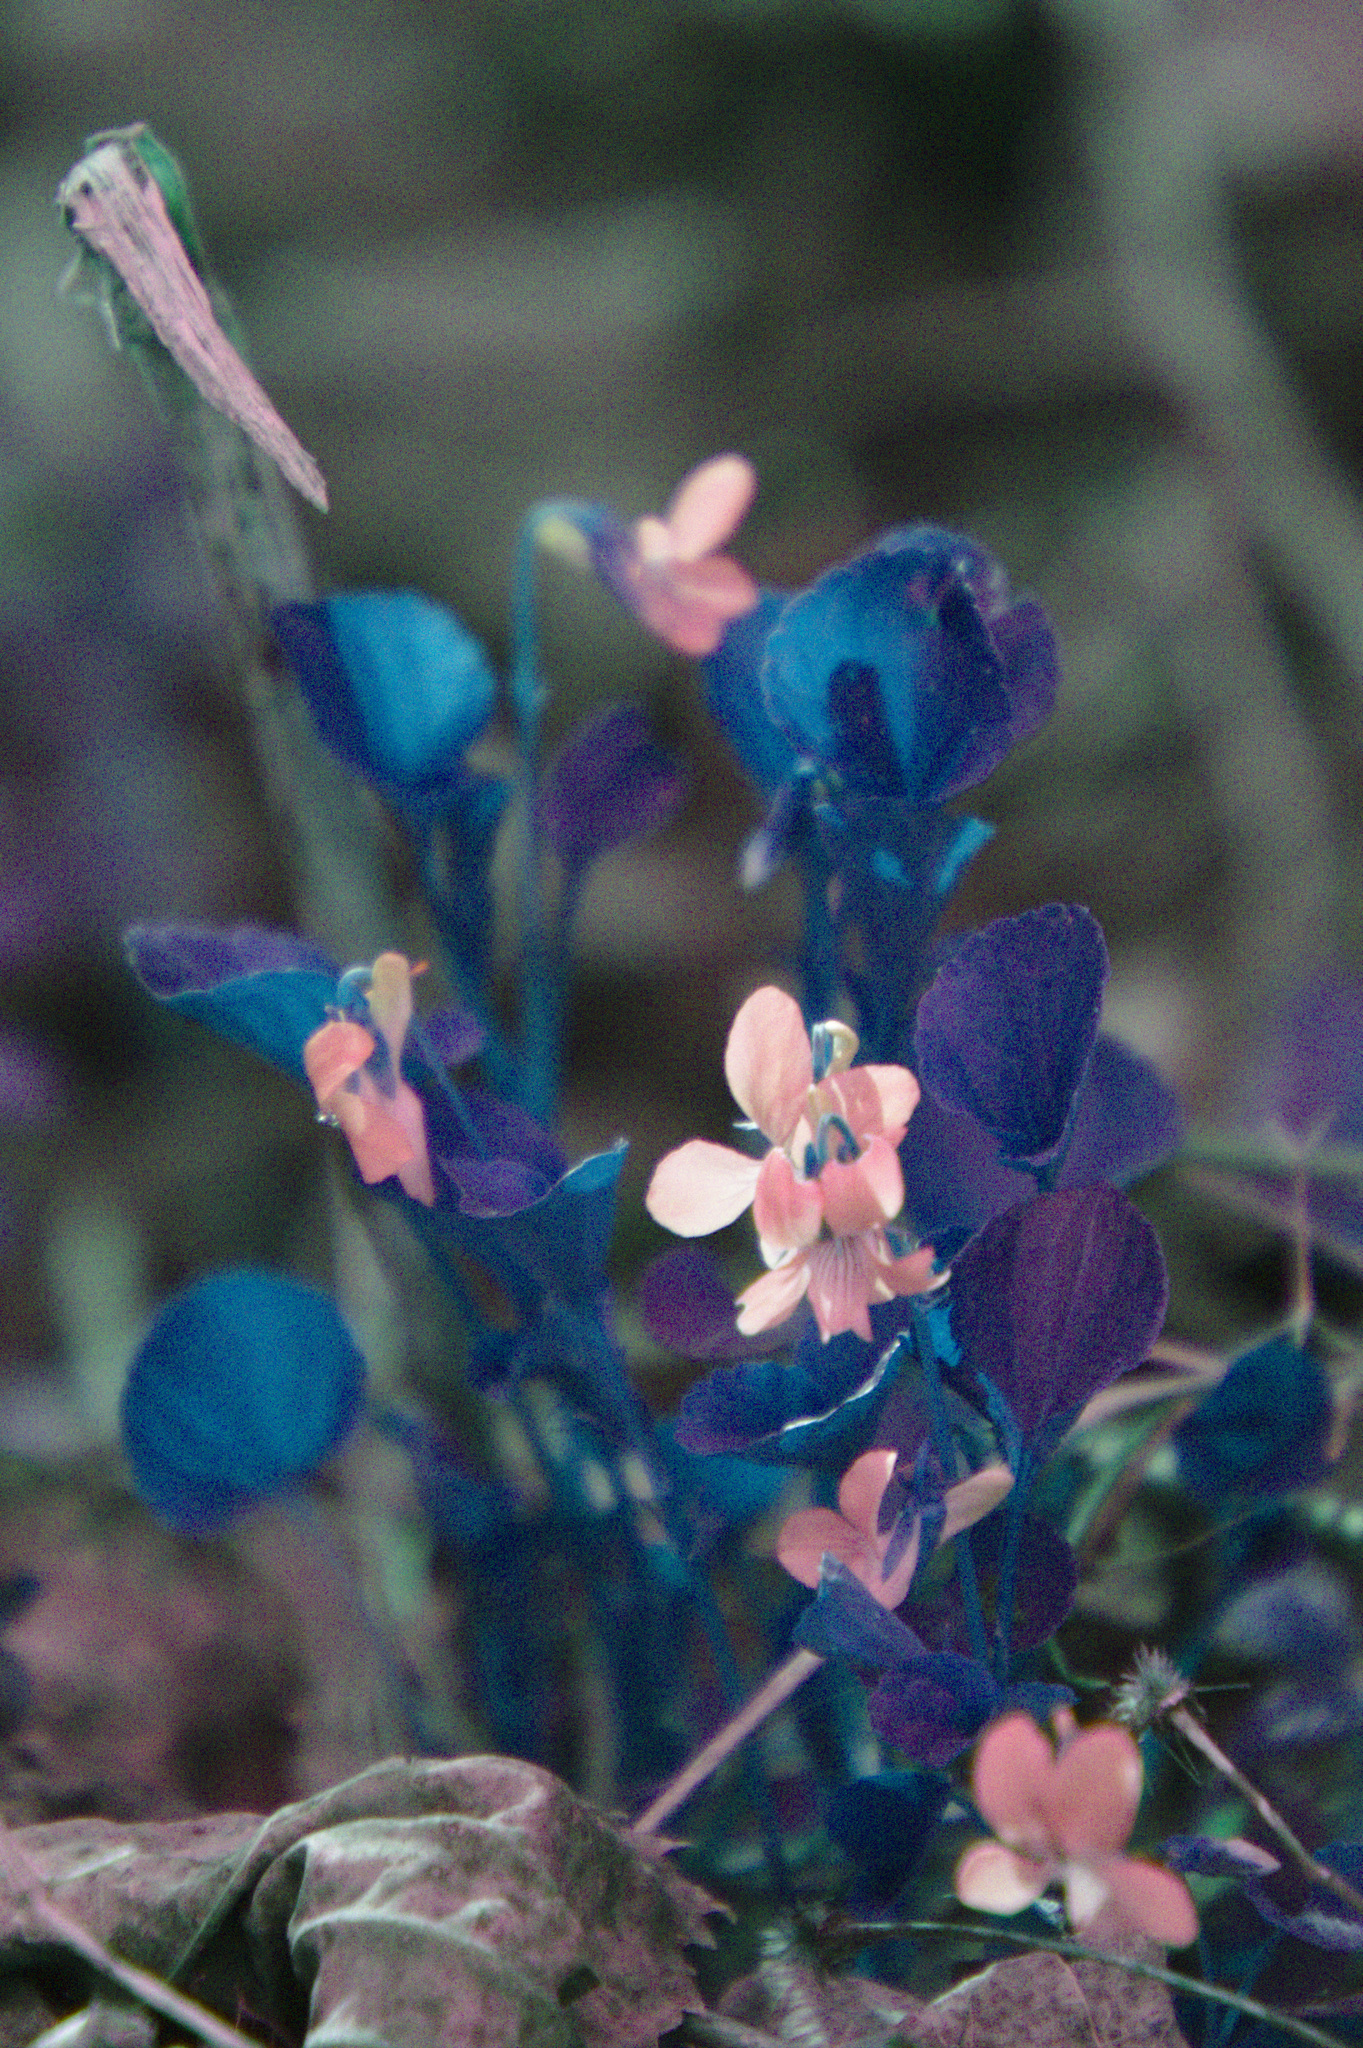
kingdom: Plantae
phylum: Tracheophyta
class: Magnoliopsida
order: Malpighiales
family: Violaceae
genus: Viola
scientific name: Viola labradorica
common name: Labrador violet
